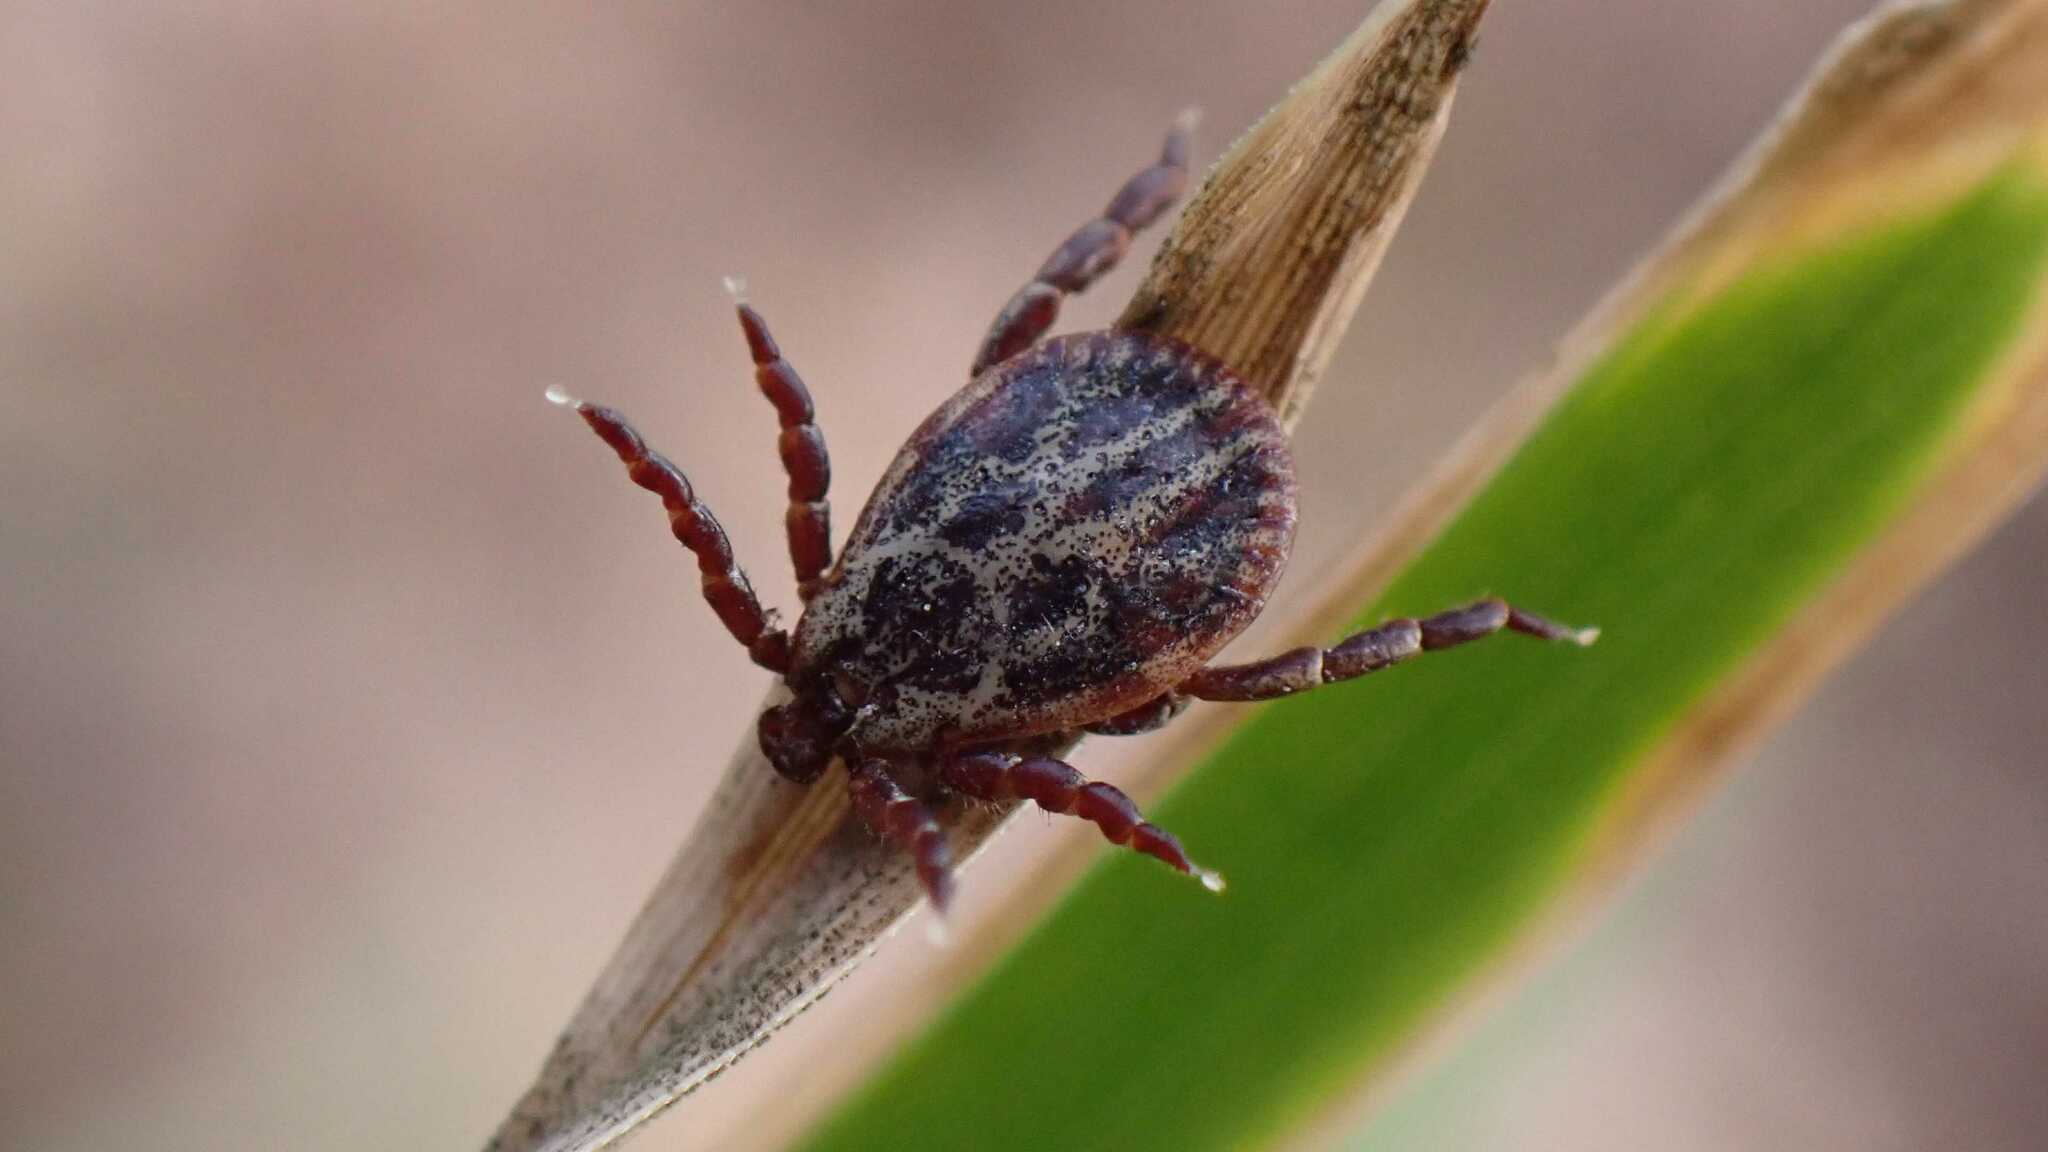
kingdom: Animalia
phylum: Arthropoda
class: Arachnida
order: Ixodida
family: Ixodidae
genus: Dermacentor
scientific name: Dermacentor reticulatus
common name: Ornate cow tick
